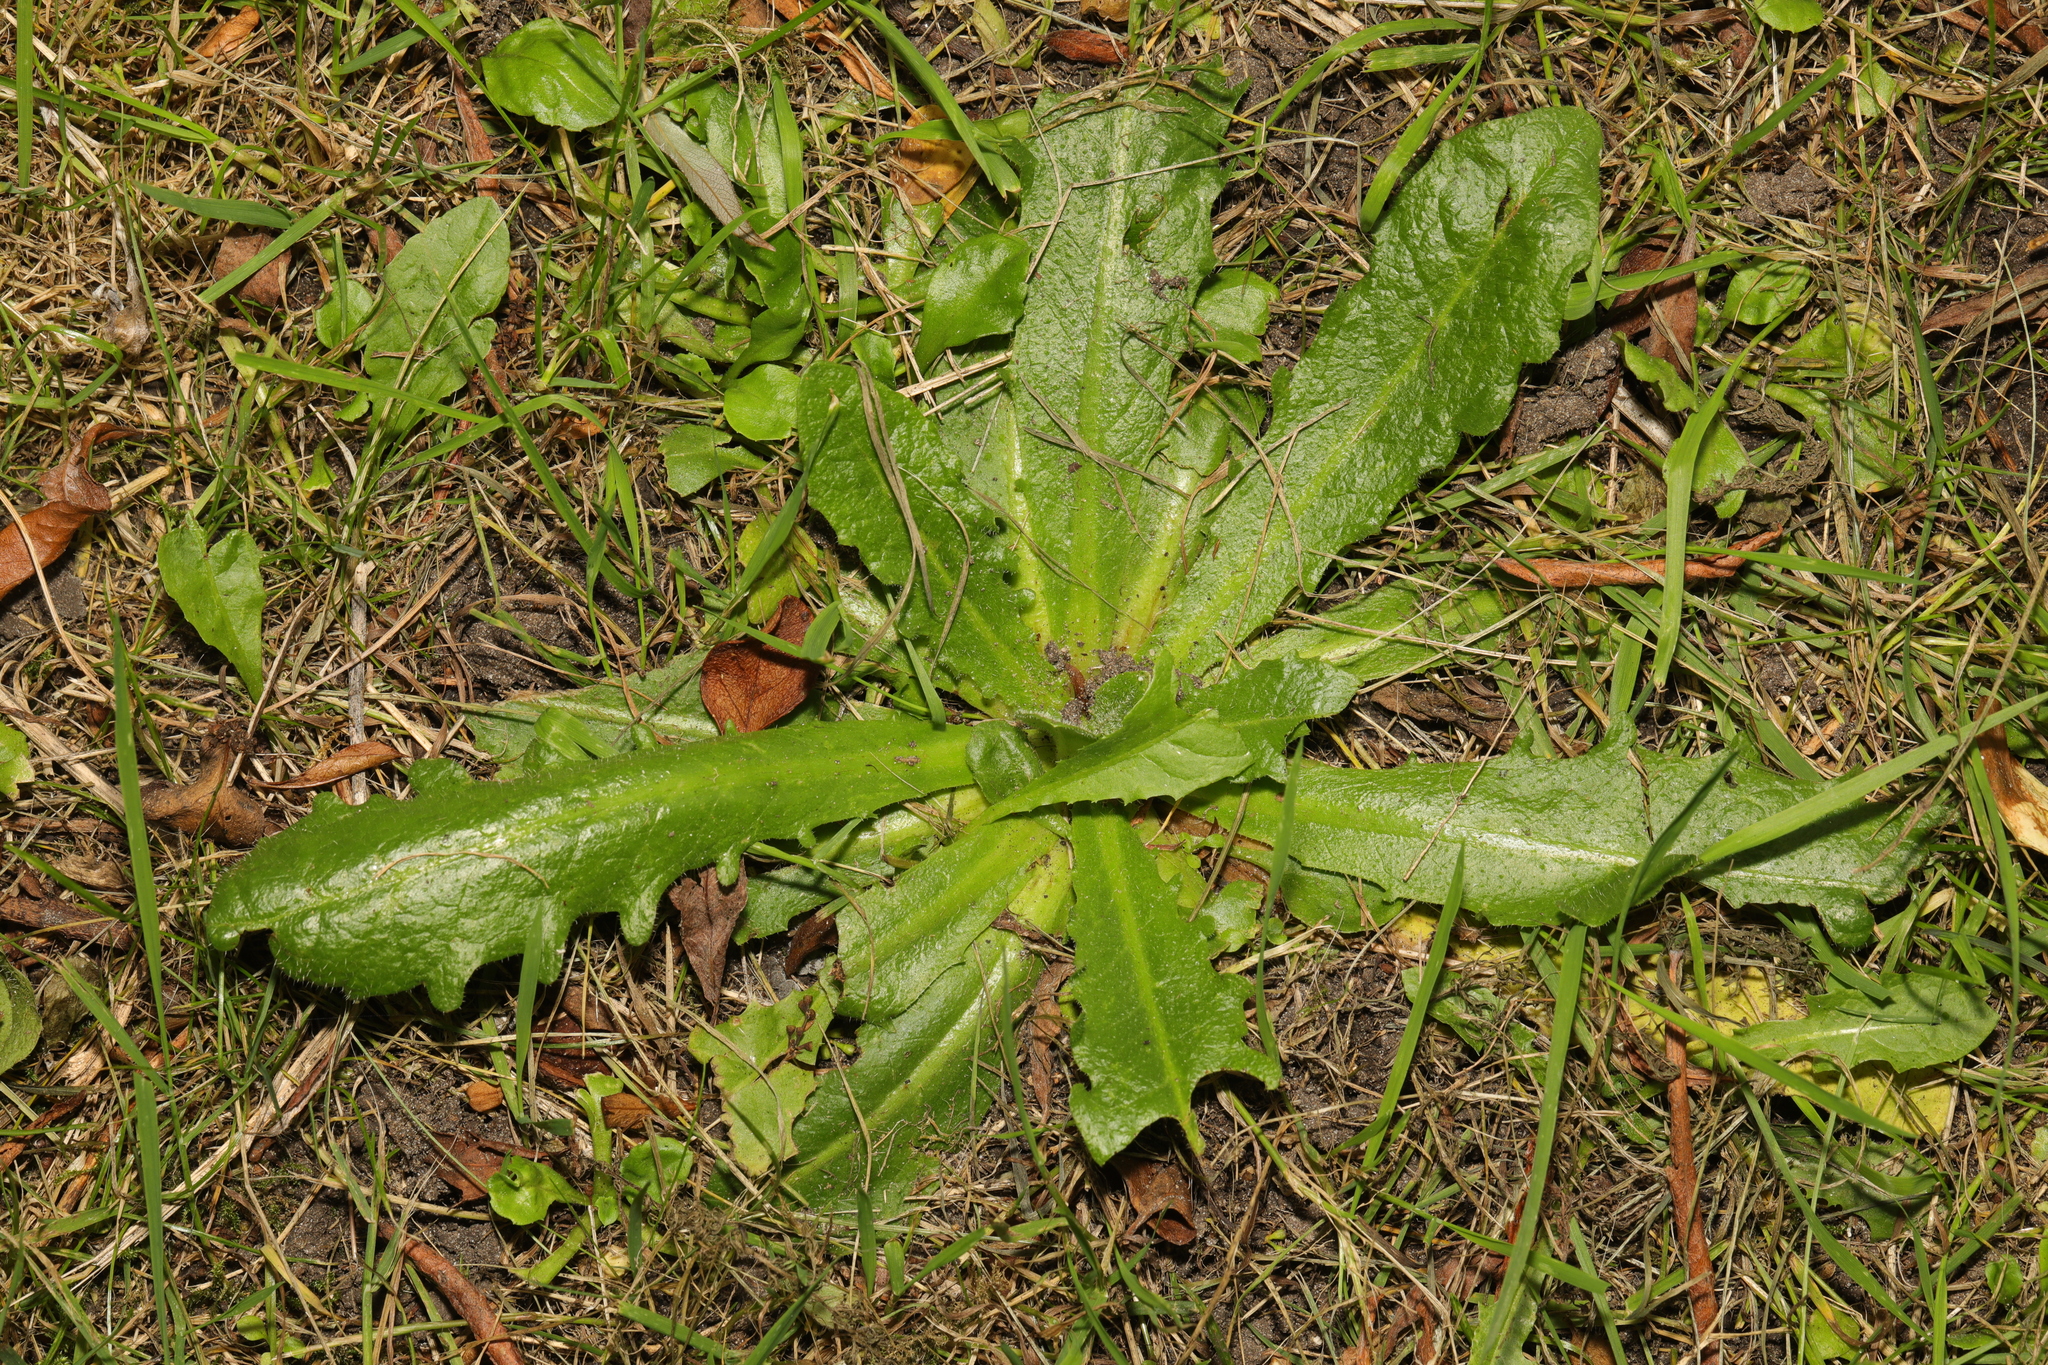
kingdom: Plantae
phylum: Tracheophyta
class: Magnoliopsida
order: Asterales
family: Asteraceae
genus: Hypochaeris
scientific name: Hypochaeris radicata
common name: Flatweed
